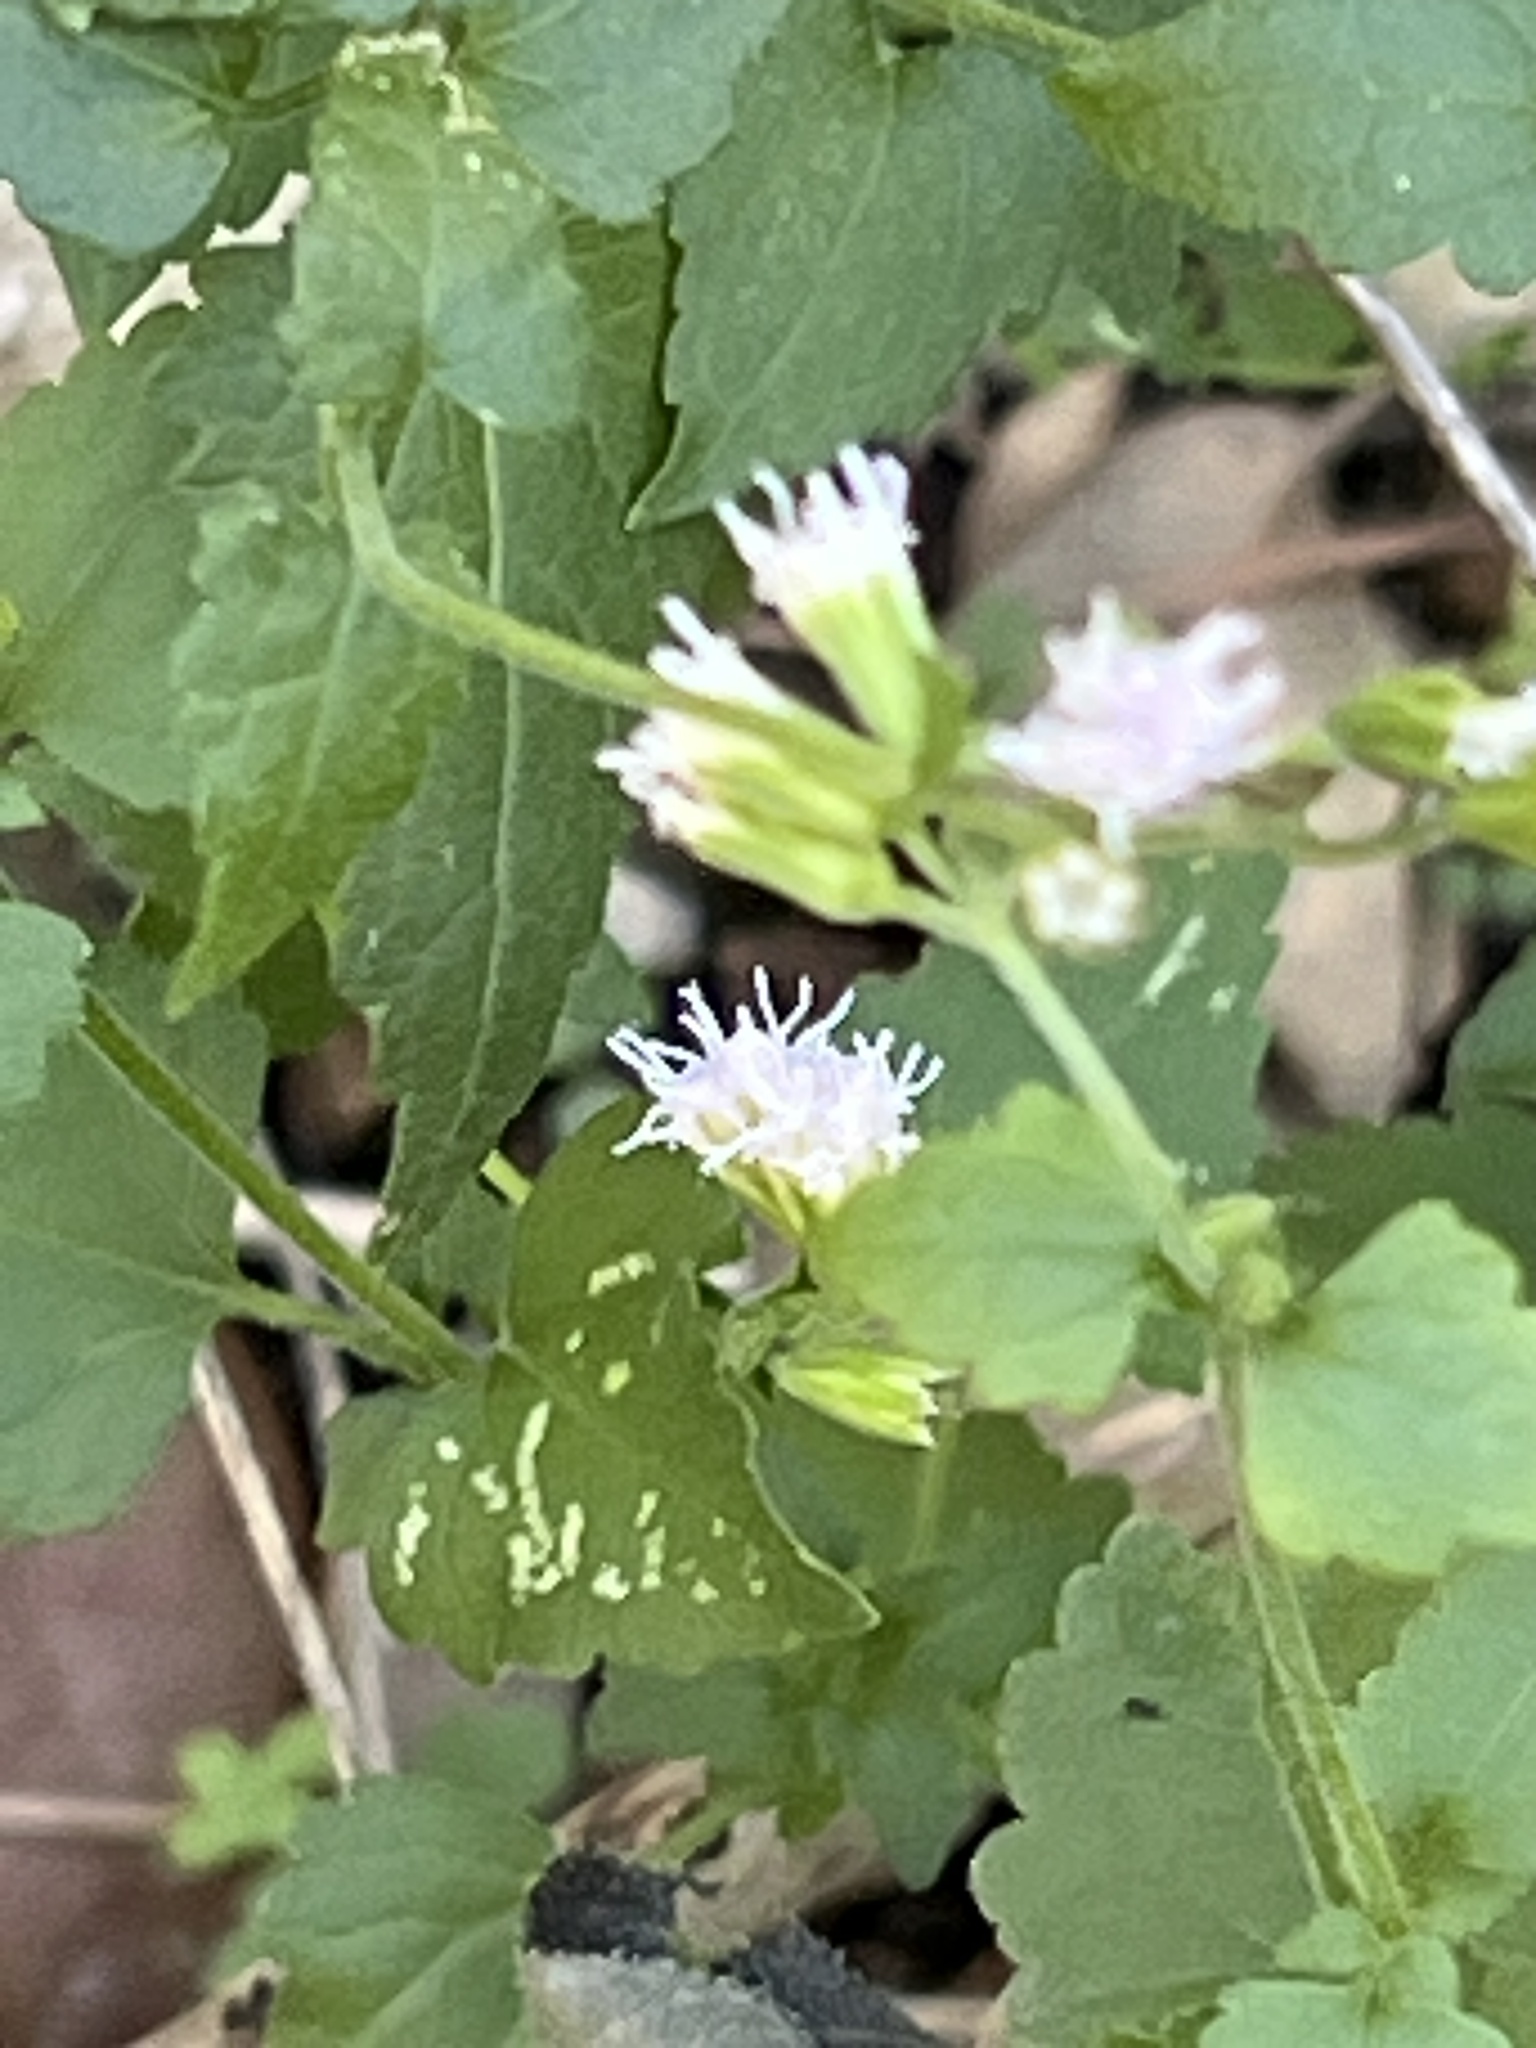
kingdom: Plantae
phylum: Tracheophyta
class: Magnoliopsida
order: Asterales
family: Asteraceae
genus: Fleischmannia
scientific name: Fleischmannia incarnata
